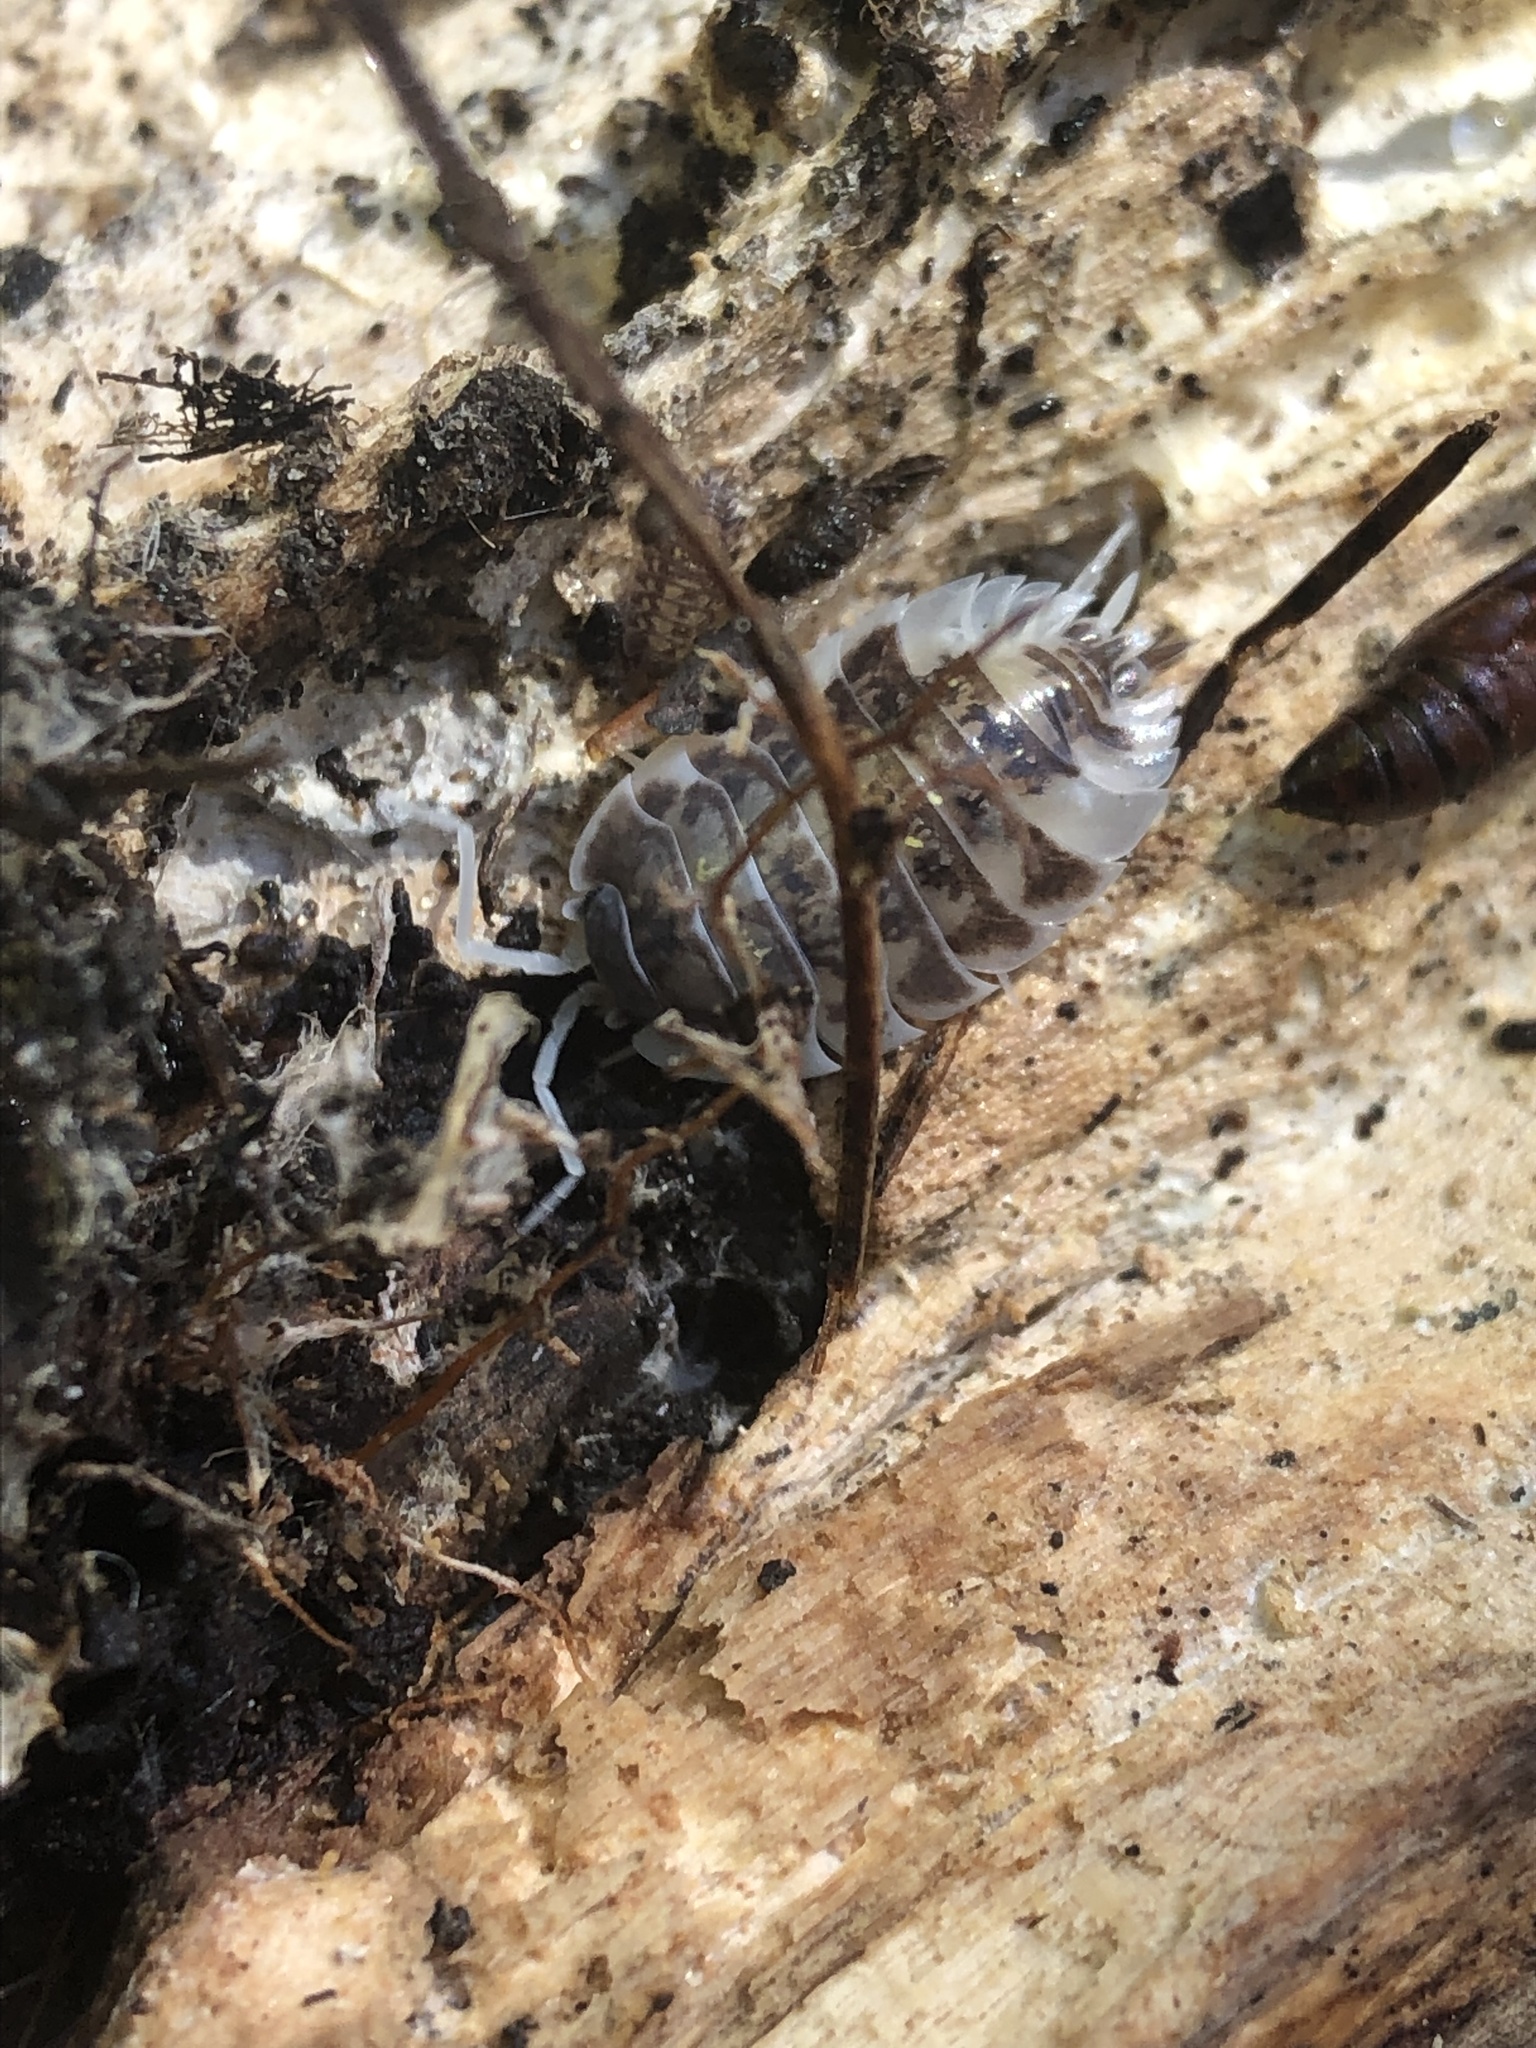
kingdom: Animalia
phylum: Arthropoda
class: Malacostraca
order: Isopoda
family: Oniscidae
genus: Oniscus
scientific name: Oniscus asellus
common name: Common shiny woodlouse
